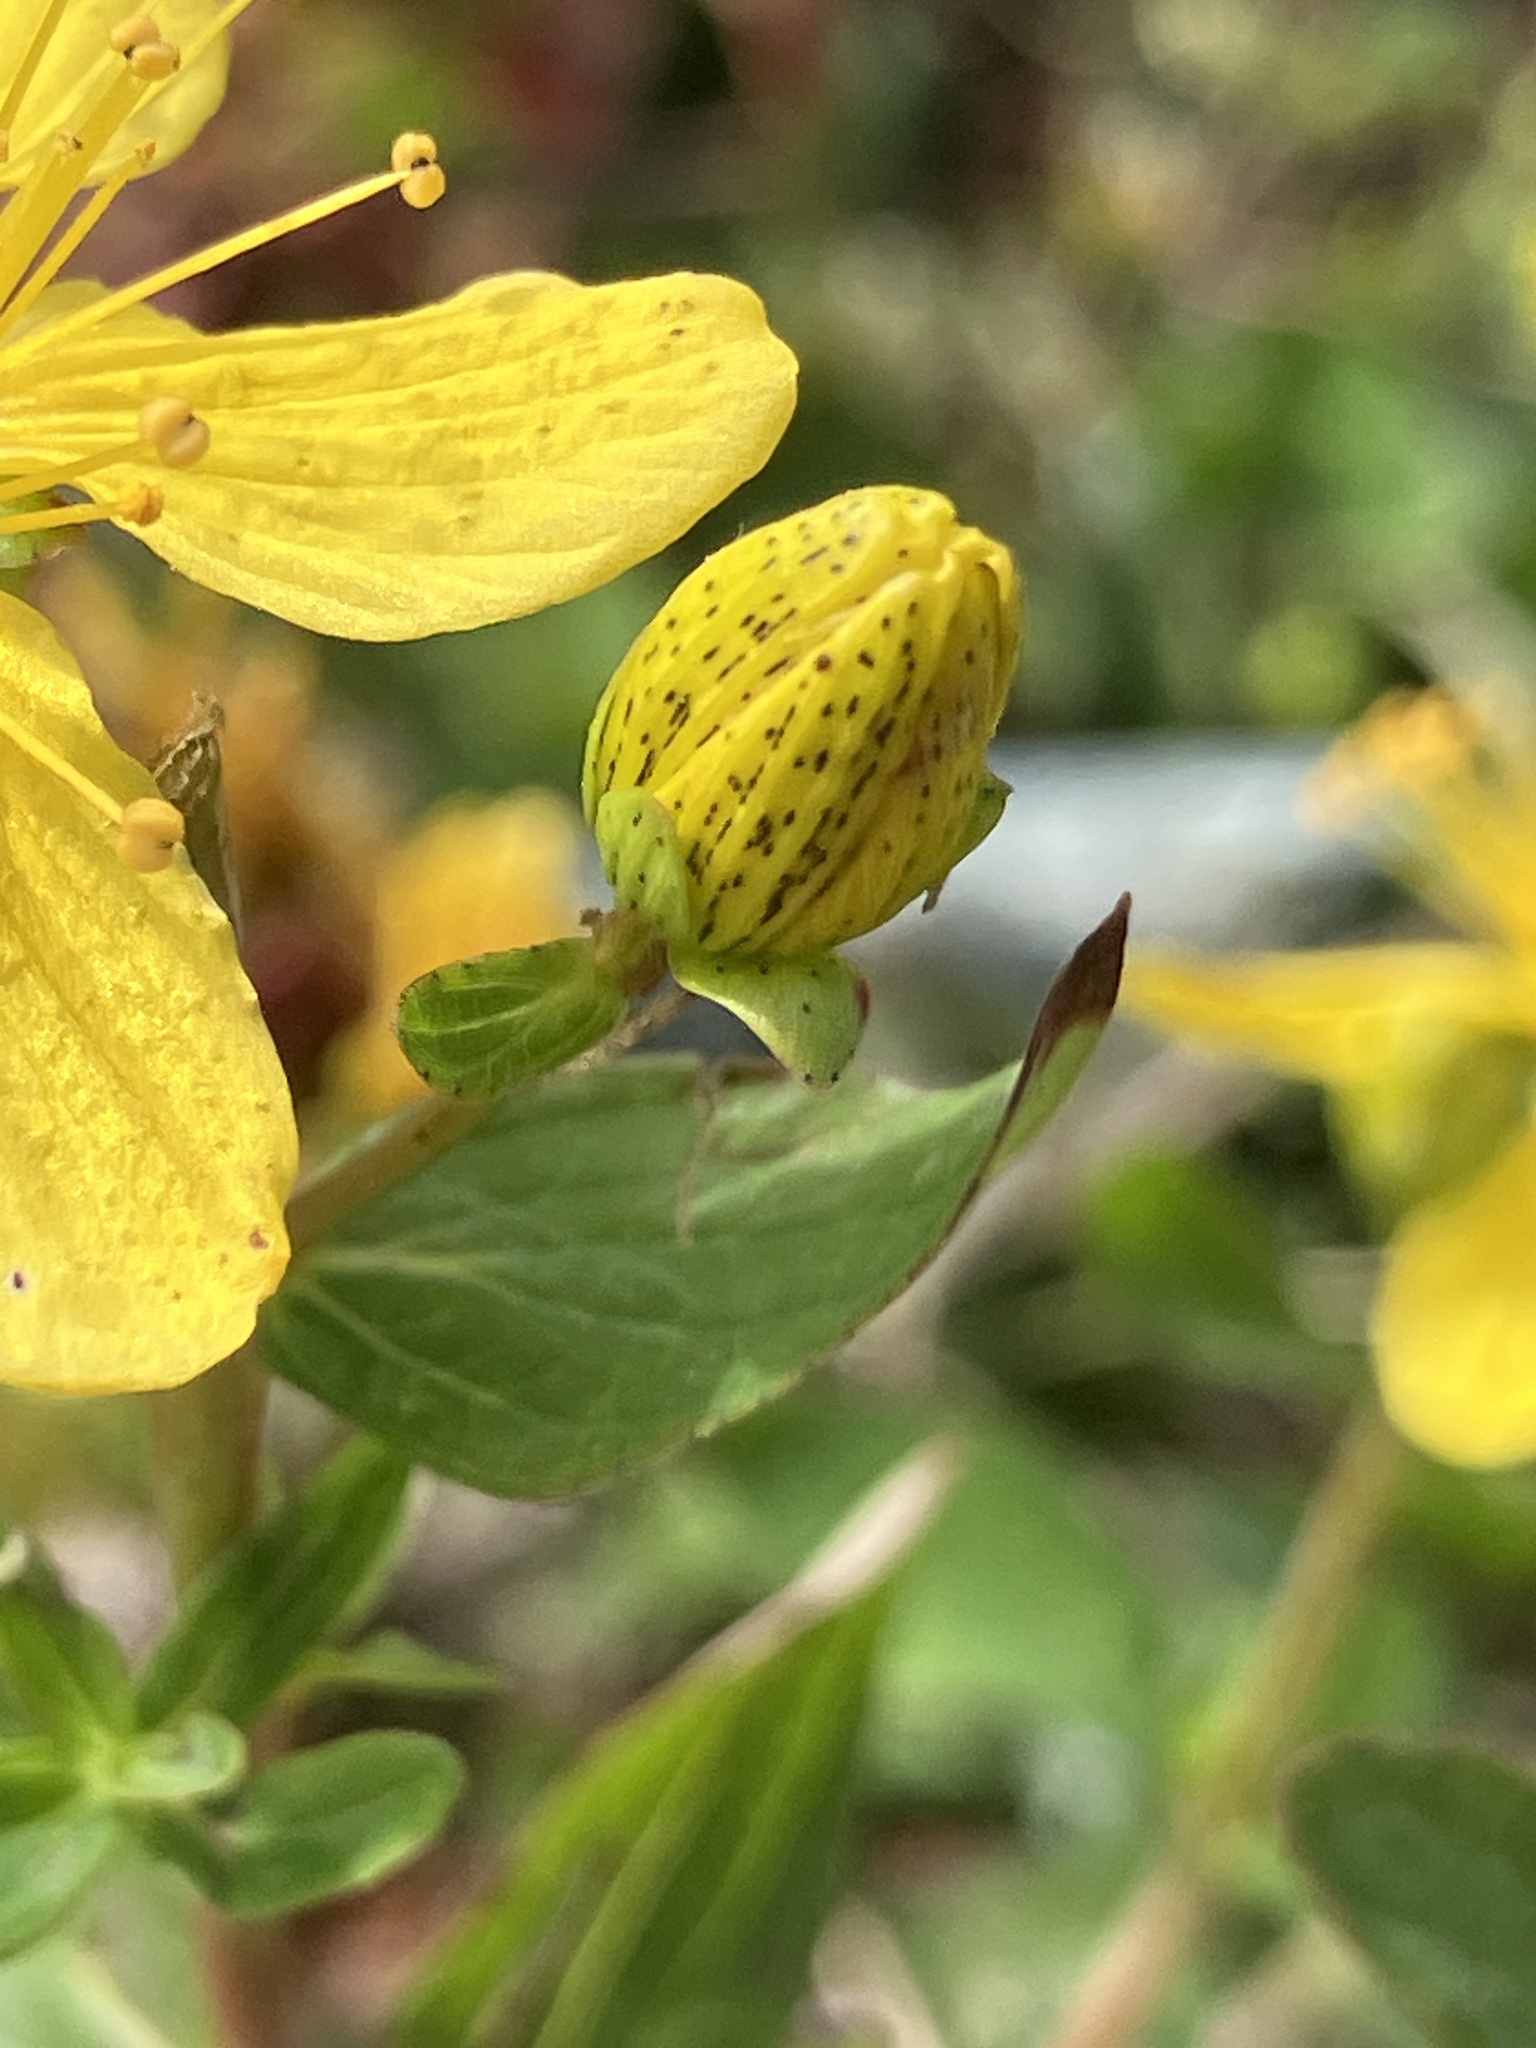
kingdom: Plantae
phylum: Tracheophyta
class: Magnoliopsida
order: Malpighiales
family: Hypericaceae
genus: Hypericum
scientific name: Hypericum maculatum
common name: Imperforate st. john's-wort
